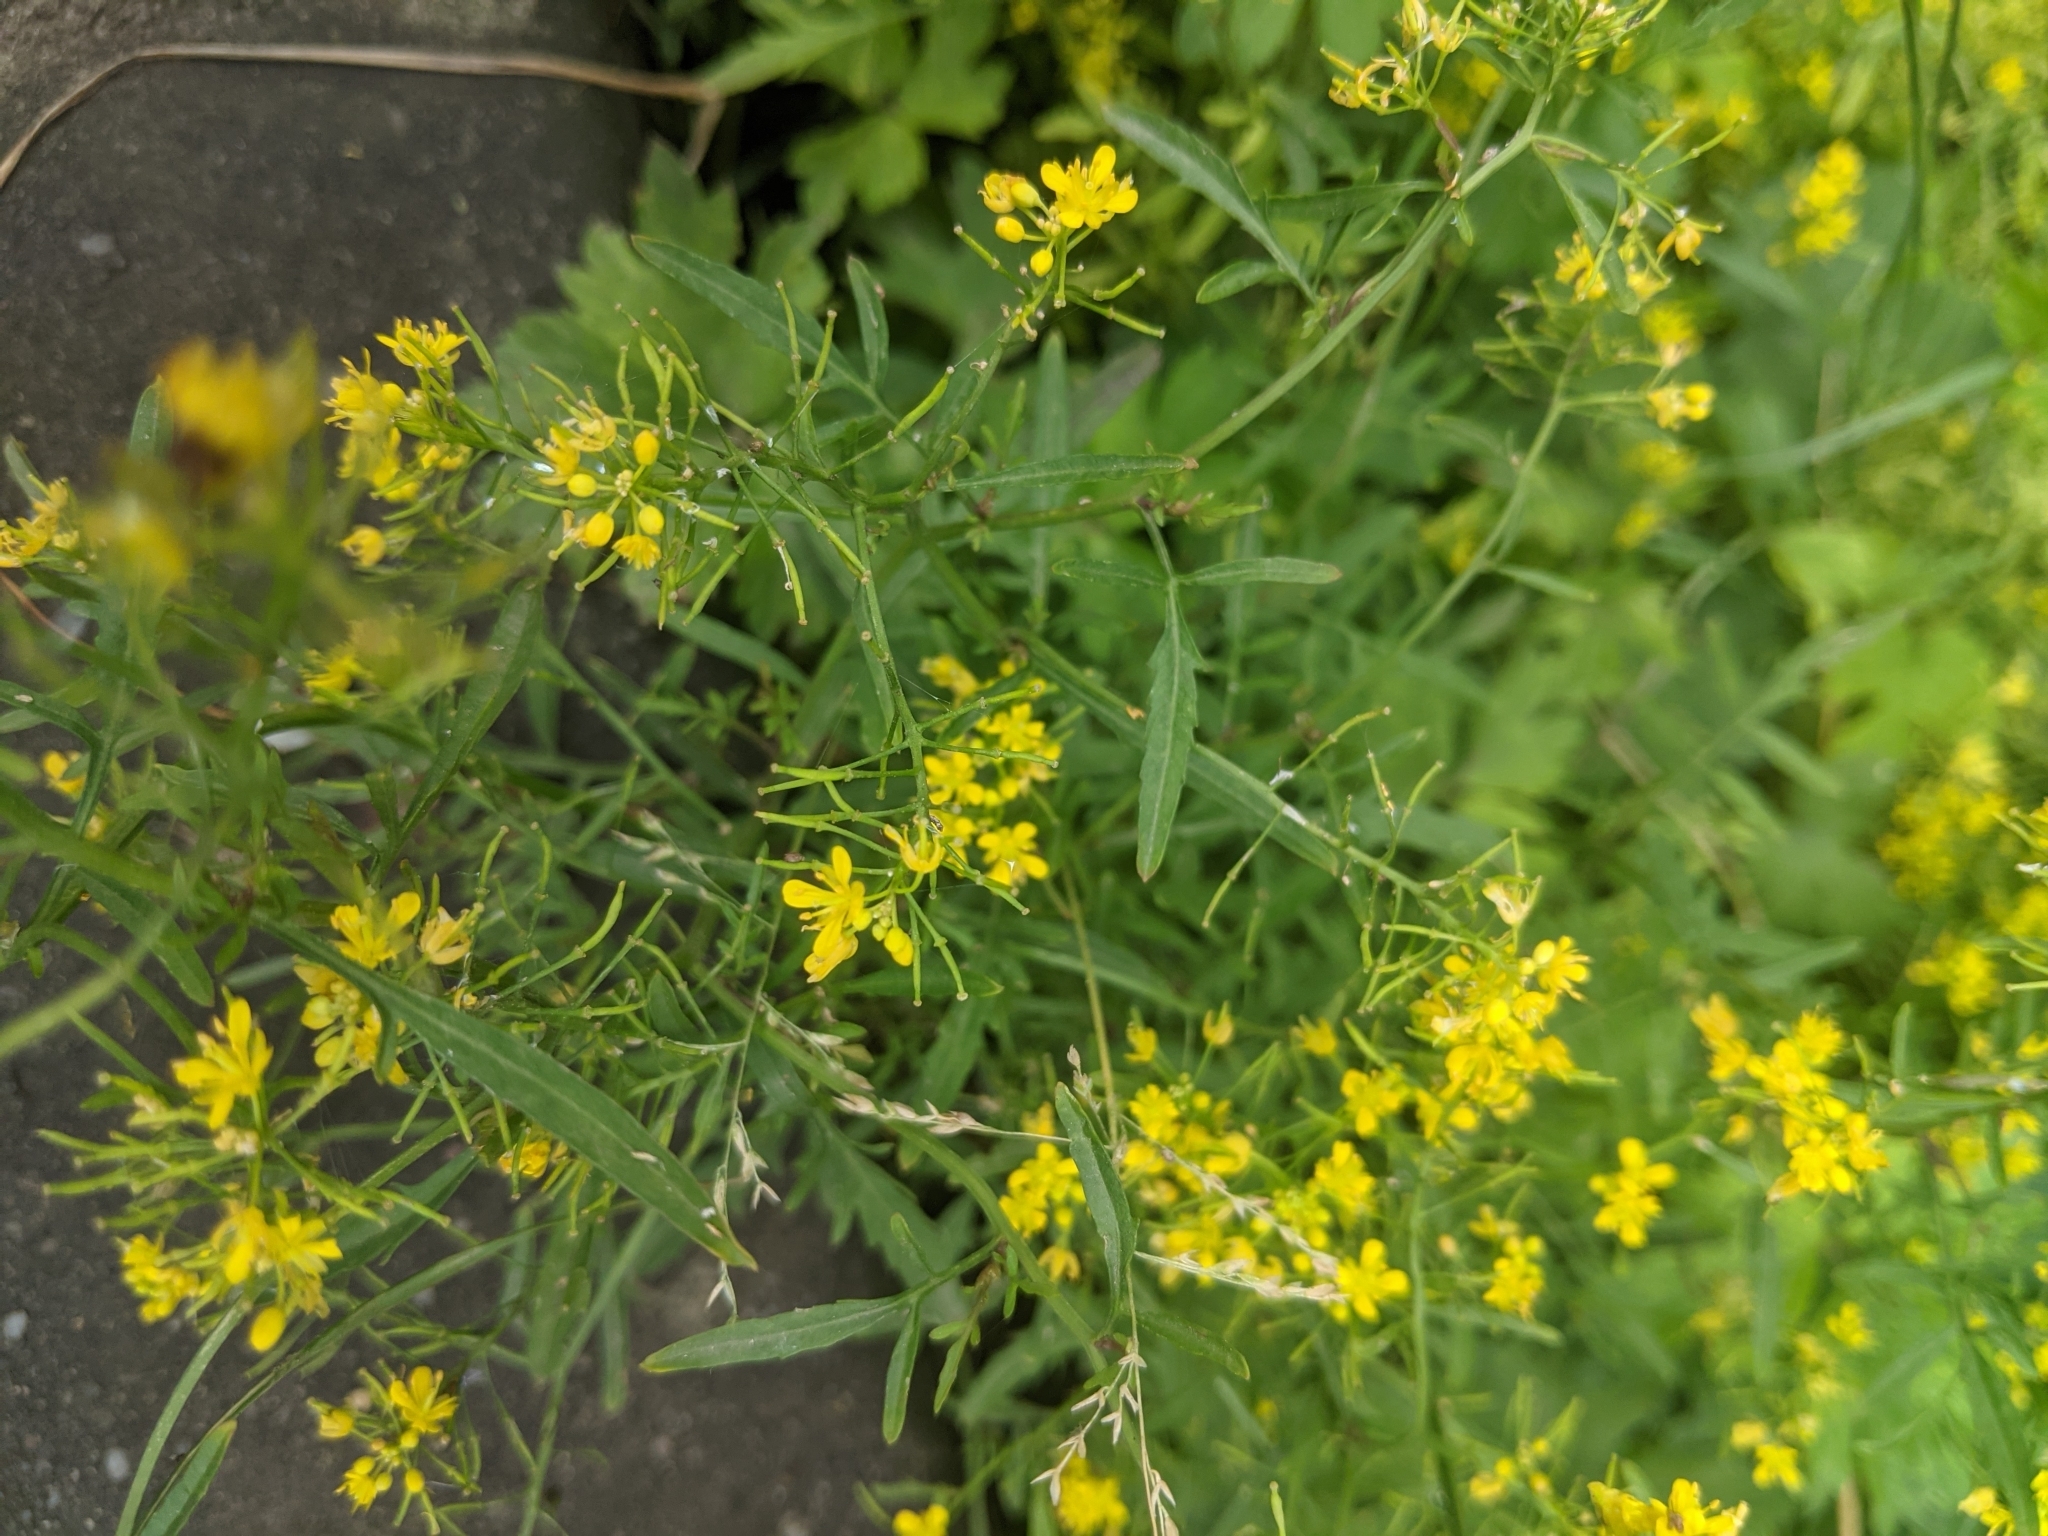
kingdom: Plantae
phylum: Tracheophyta
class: Magnoliopsida
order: Brassicales
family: Brassicaceae
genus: Rorippa
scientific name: Rorippa sylvestris
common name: Creeping yellowcress
